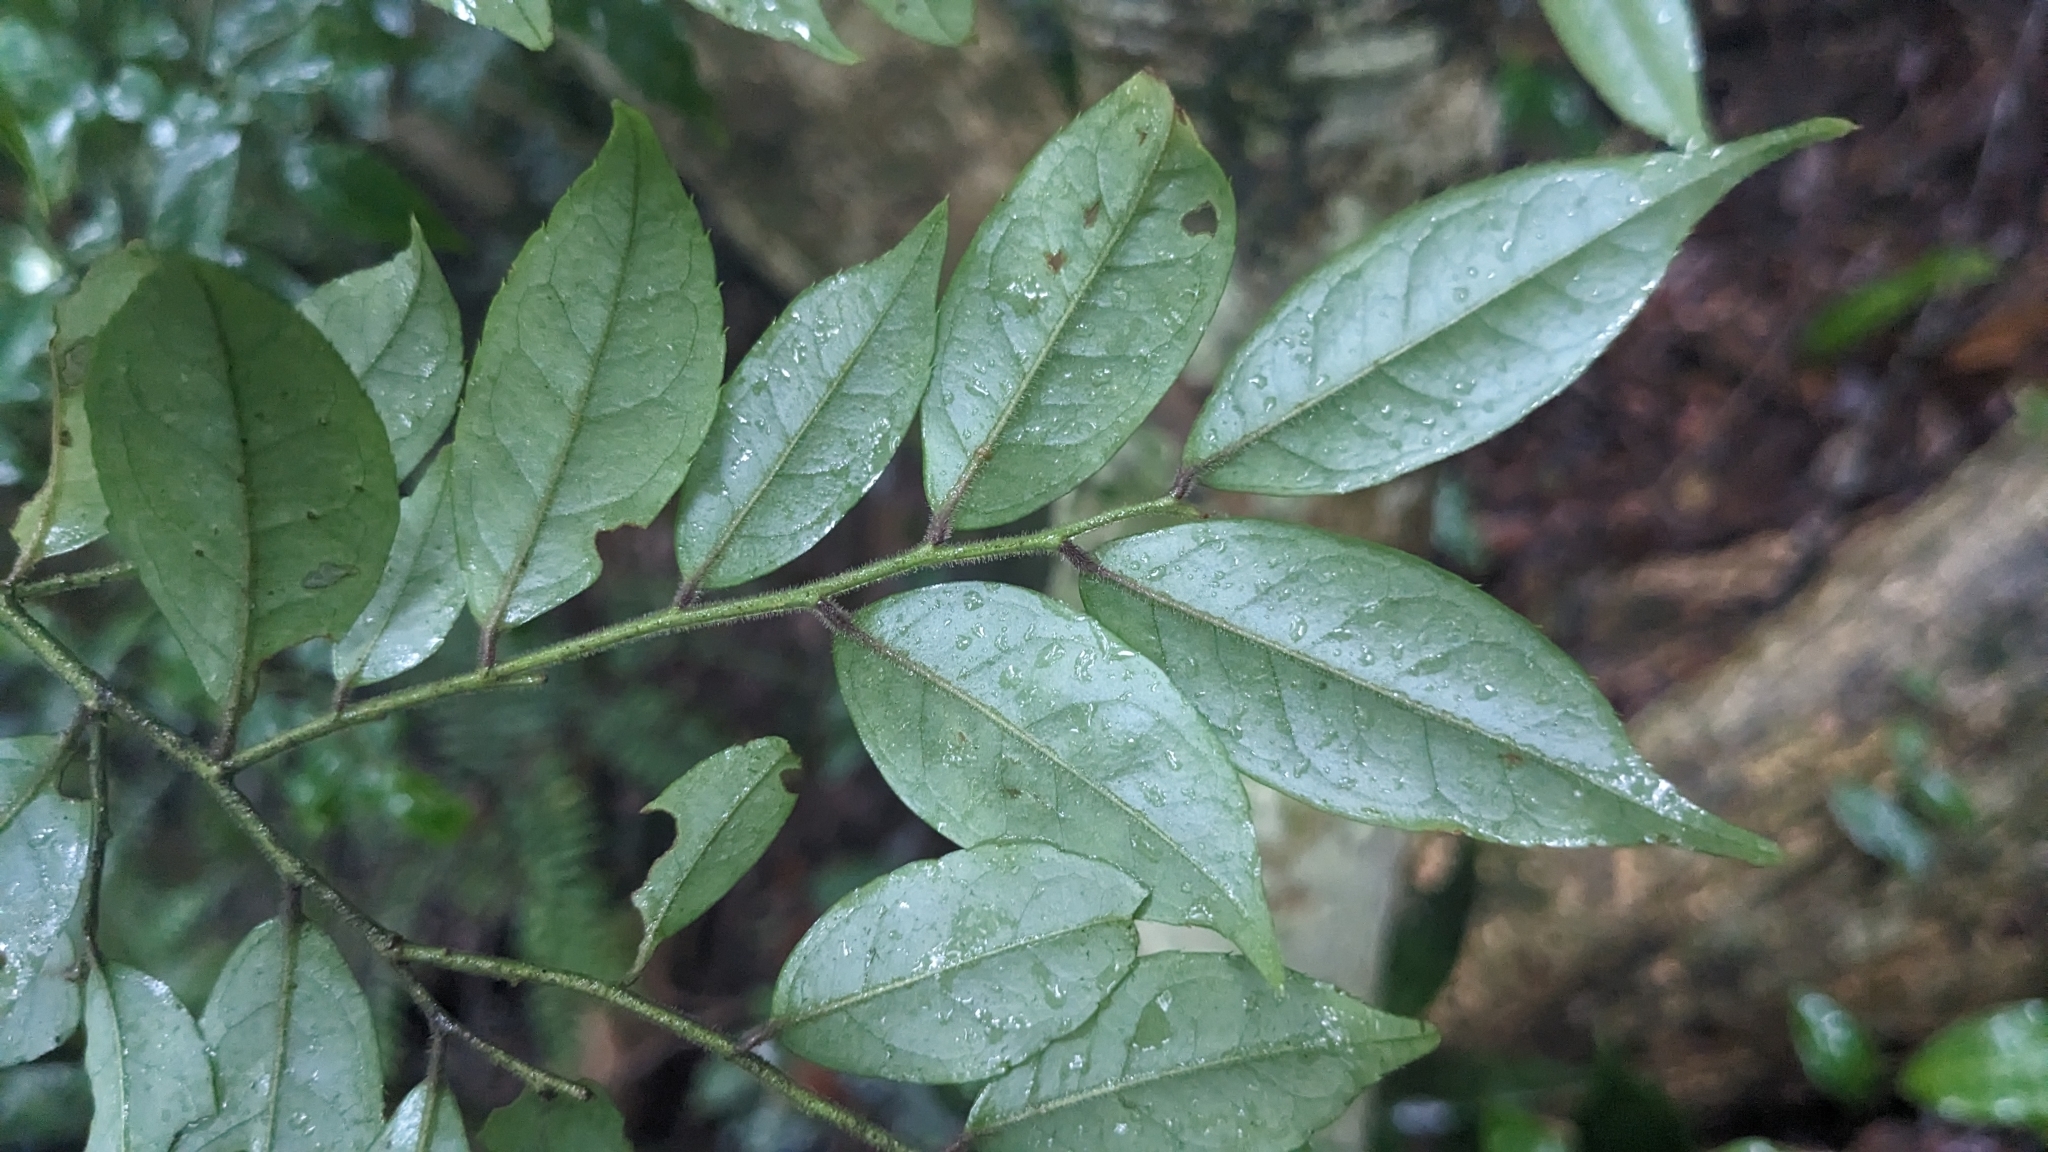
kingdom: Plantae
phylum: Tracheophyta
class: Magnoliopsida
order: Aquifoliales
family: Aquifoliaceae
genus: Ilex
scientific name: Ilex pubescens
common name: Pubescent holly
